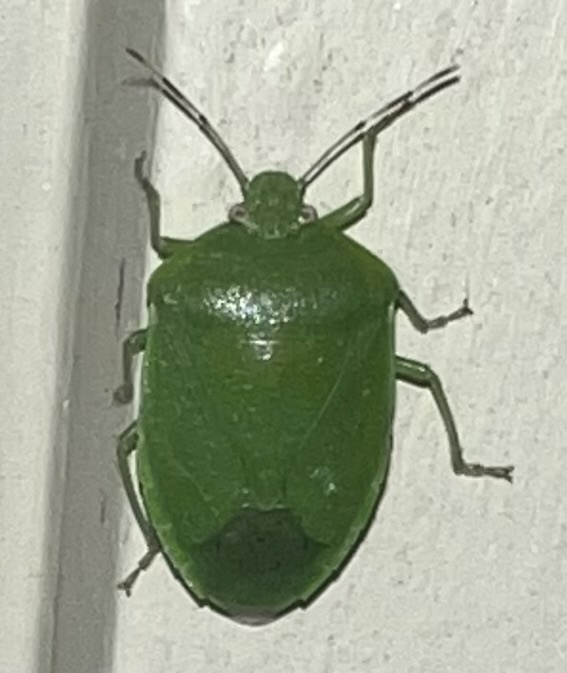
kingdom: Animalia
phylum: Arthropoda
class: Insecta
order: Hemiptera
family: Pentatomidae
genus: Chinavia
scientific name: Chinavia hilaris
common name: Green stink bug
